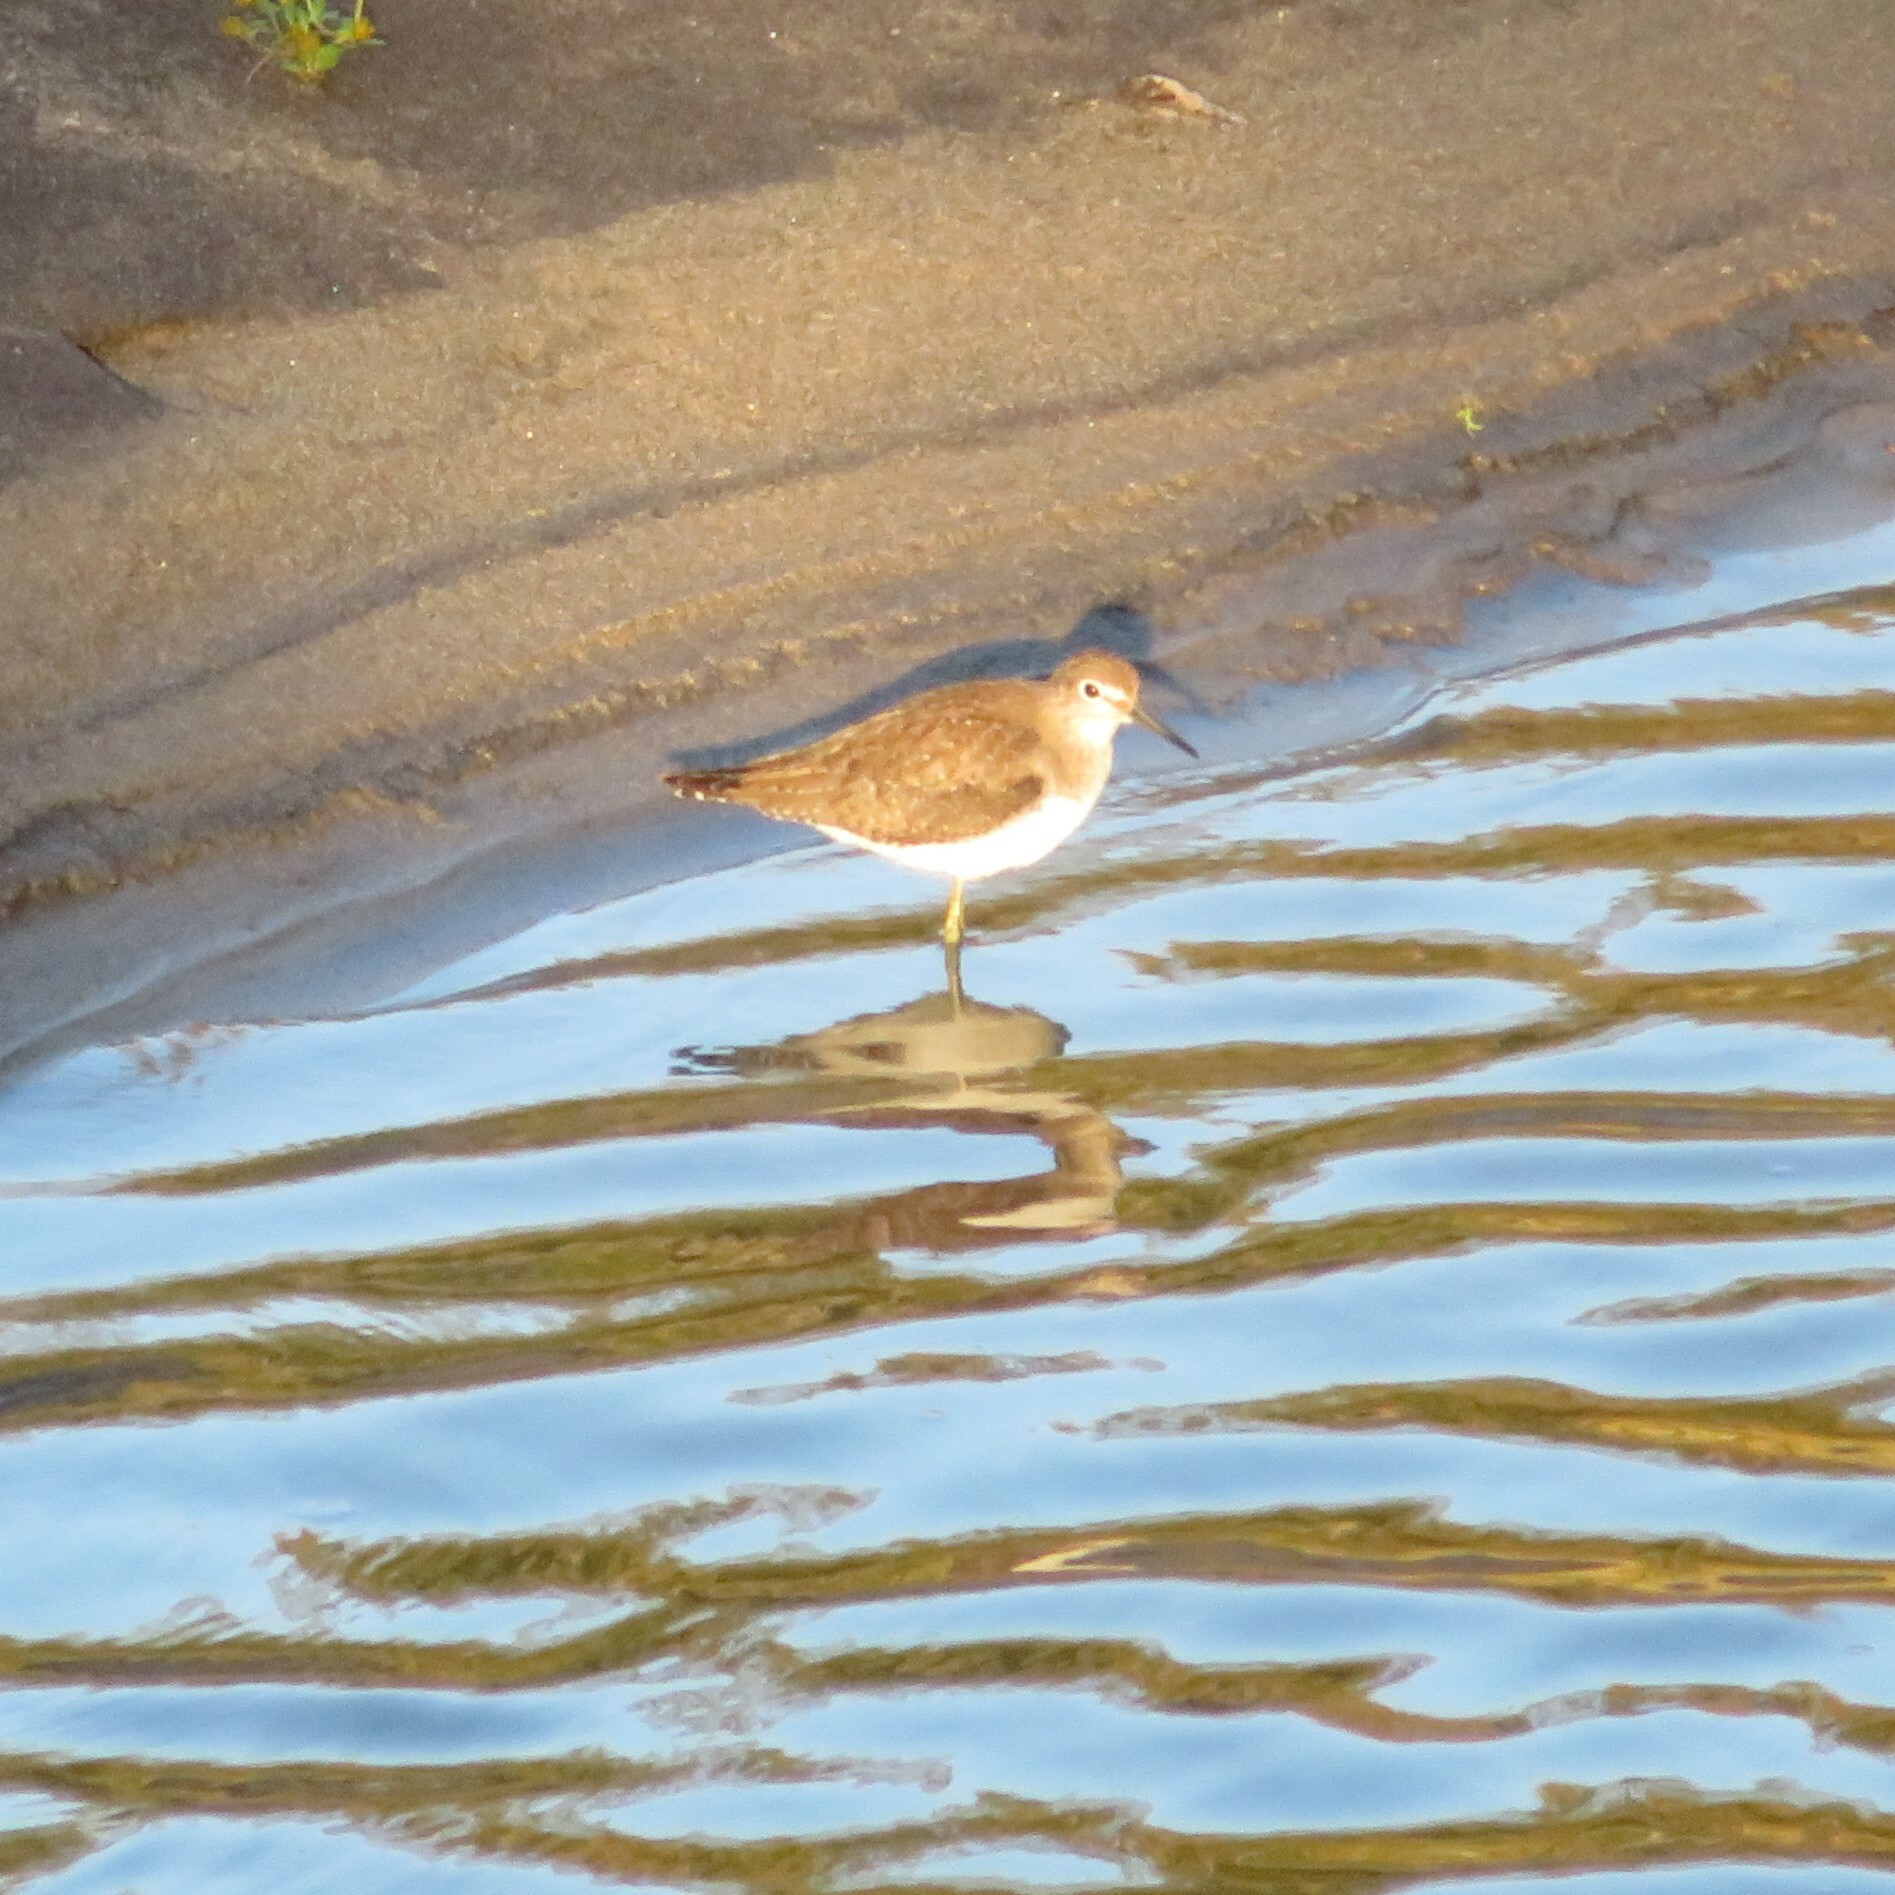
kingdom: Animalia
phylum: Chordata
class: Aves
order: Charadriiformes
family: Scolopacidae
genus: Tringa
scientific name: Tringa solitaria
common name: Solitary sandpiper
